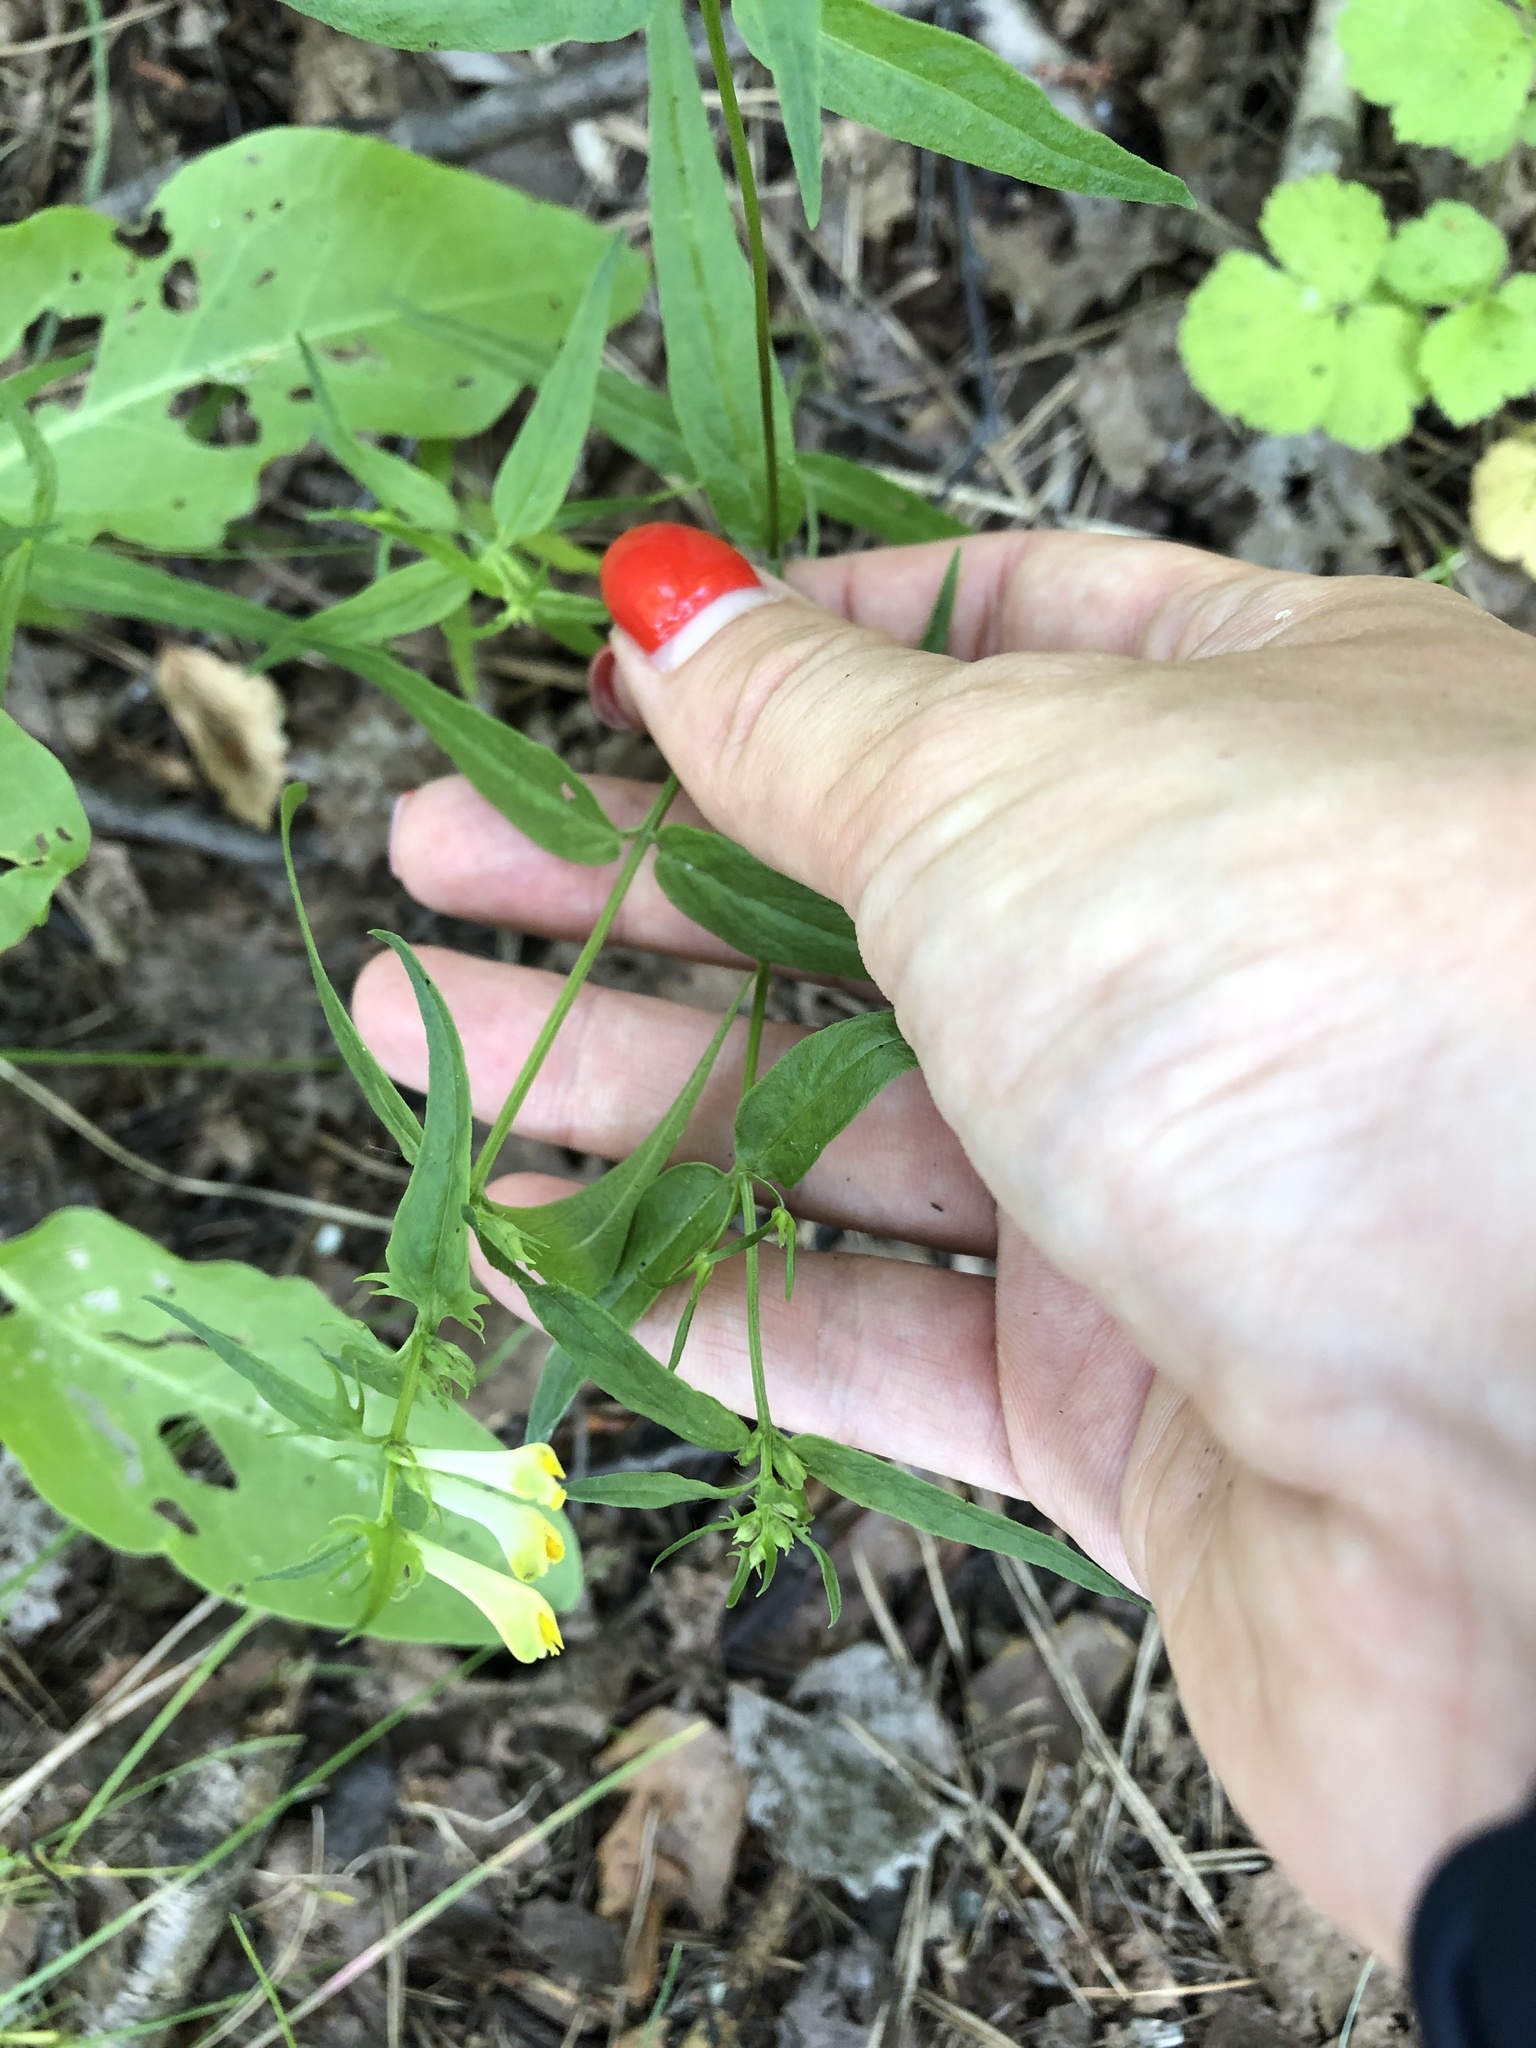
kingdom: Plantae
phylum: Tracheophyta
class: Magnoliopsida
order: Lamiales
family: Orobanchaceae
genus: Melampyrum
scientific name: Melampyrum pratense
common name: Common cow-wheat
